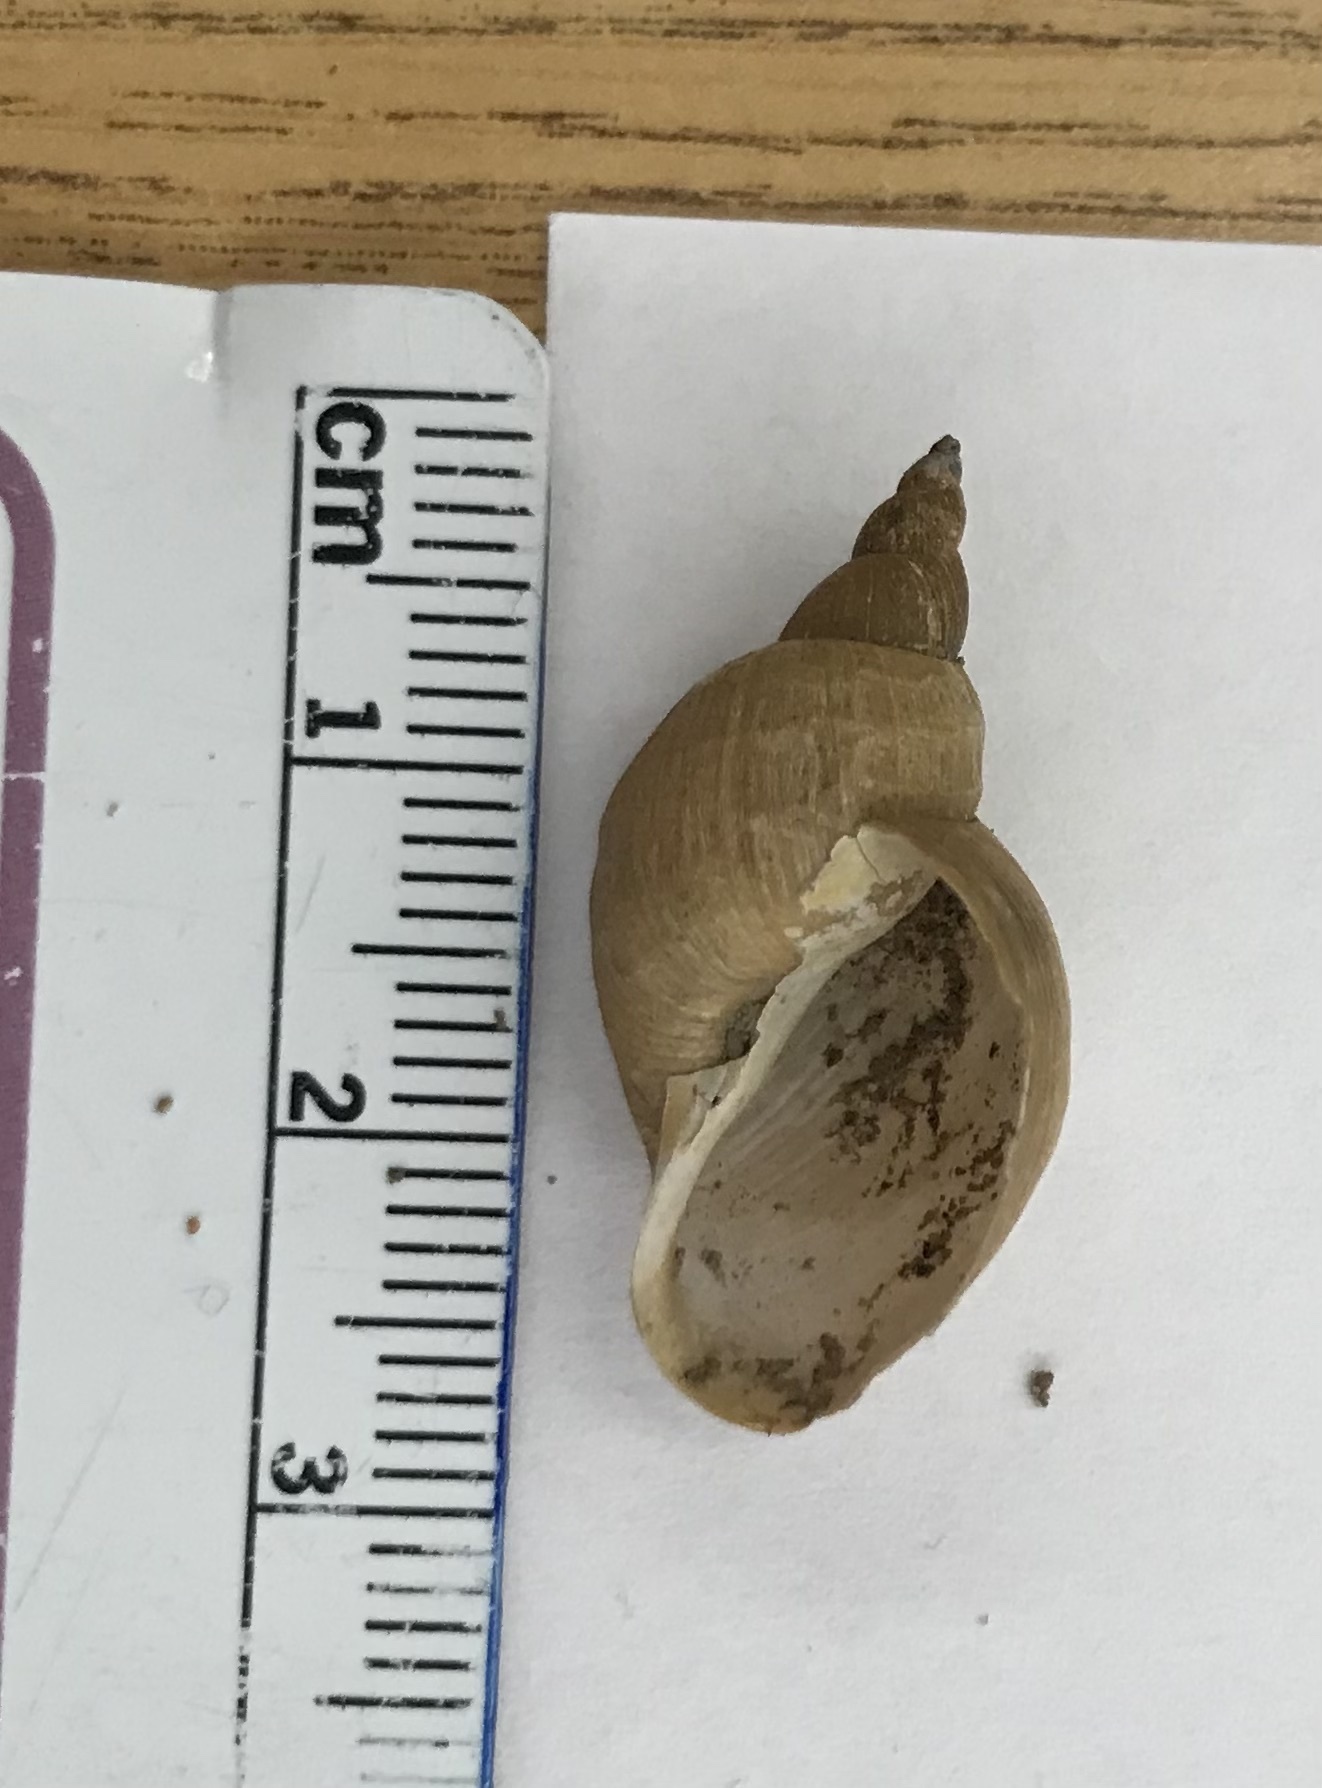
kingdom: Animalia
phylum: Mollusca
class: Gastropoda
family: Lymnaeidae
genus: Lymnaea
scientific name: Lymnaea stagnalis
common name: Great pond snail
